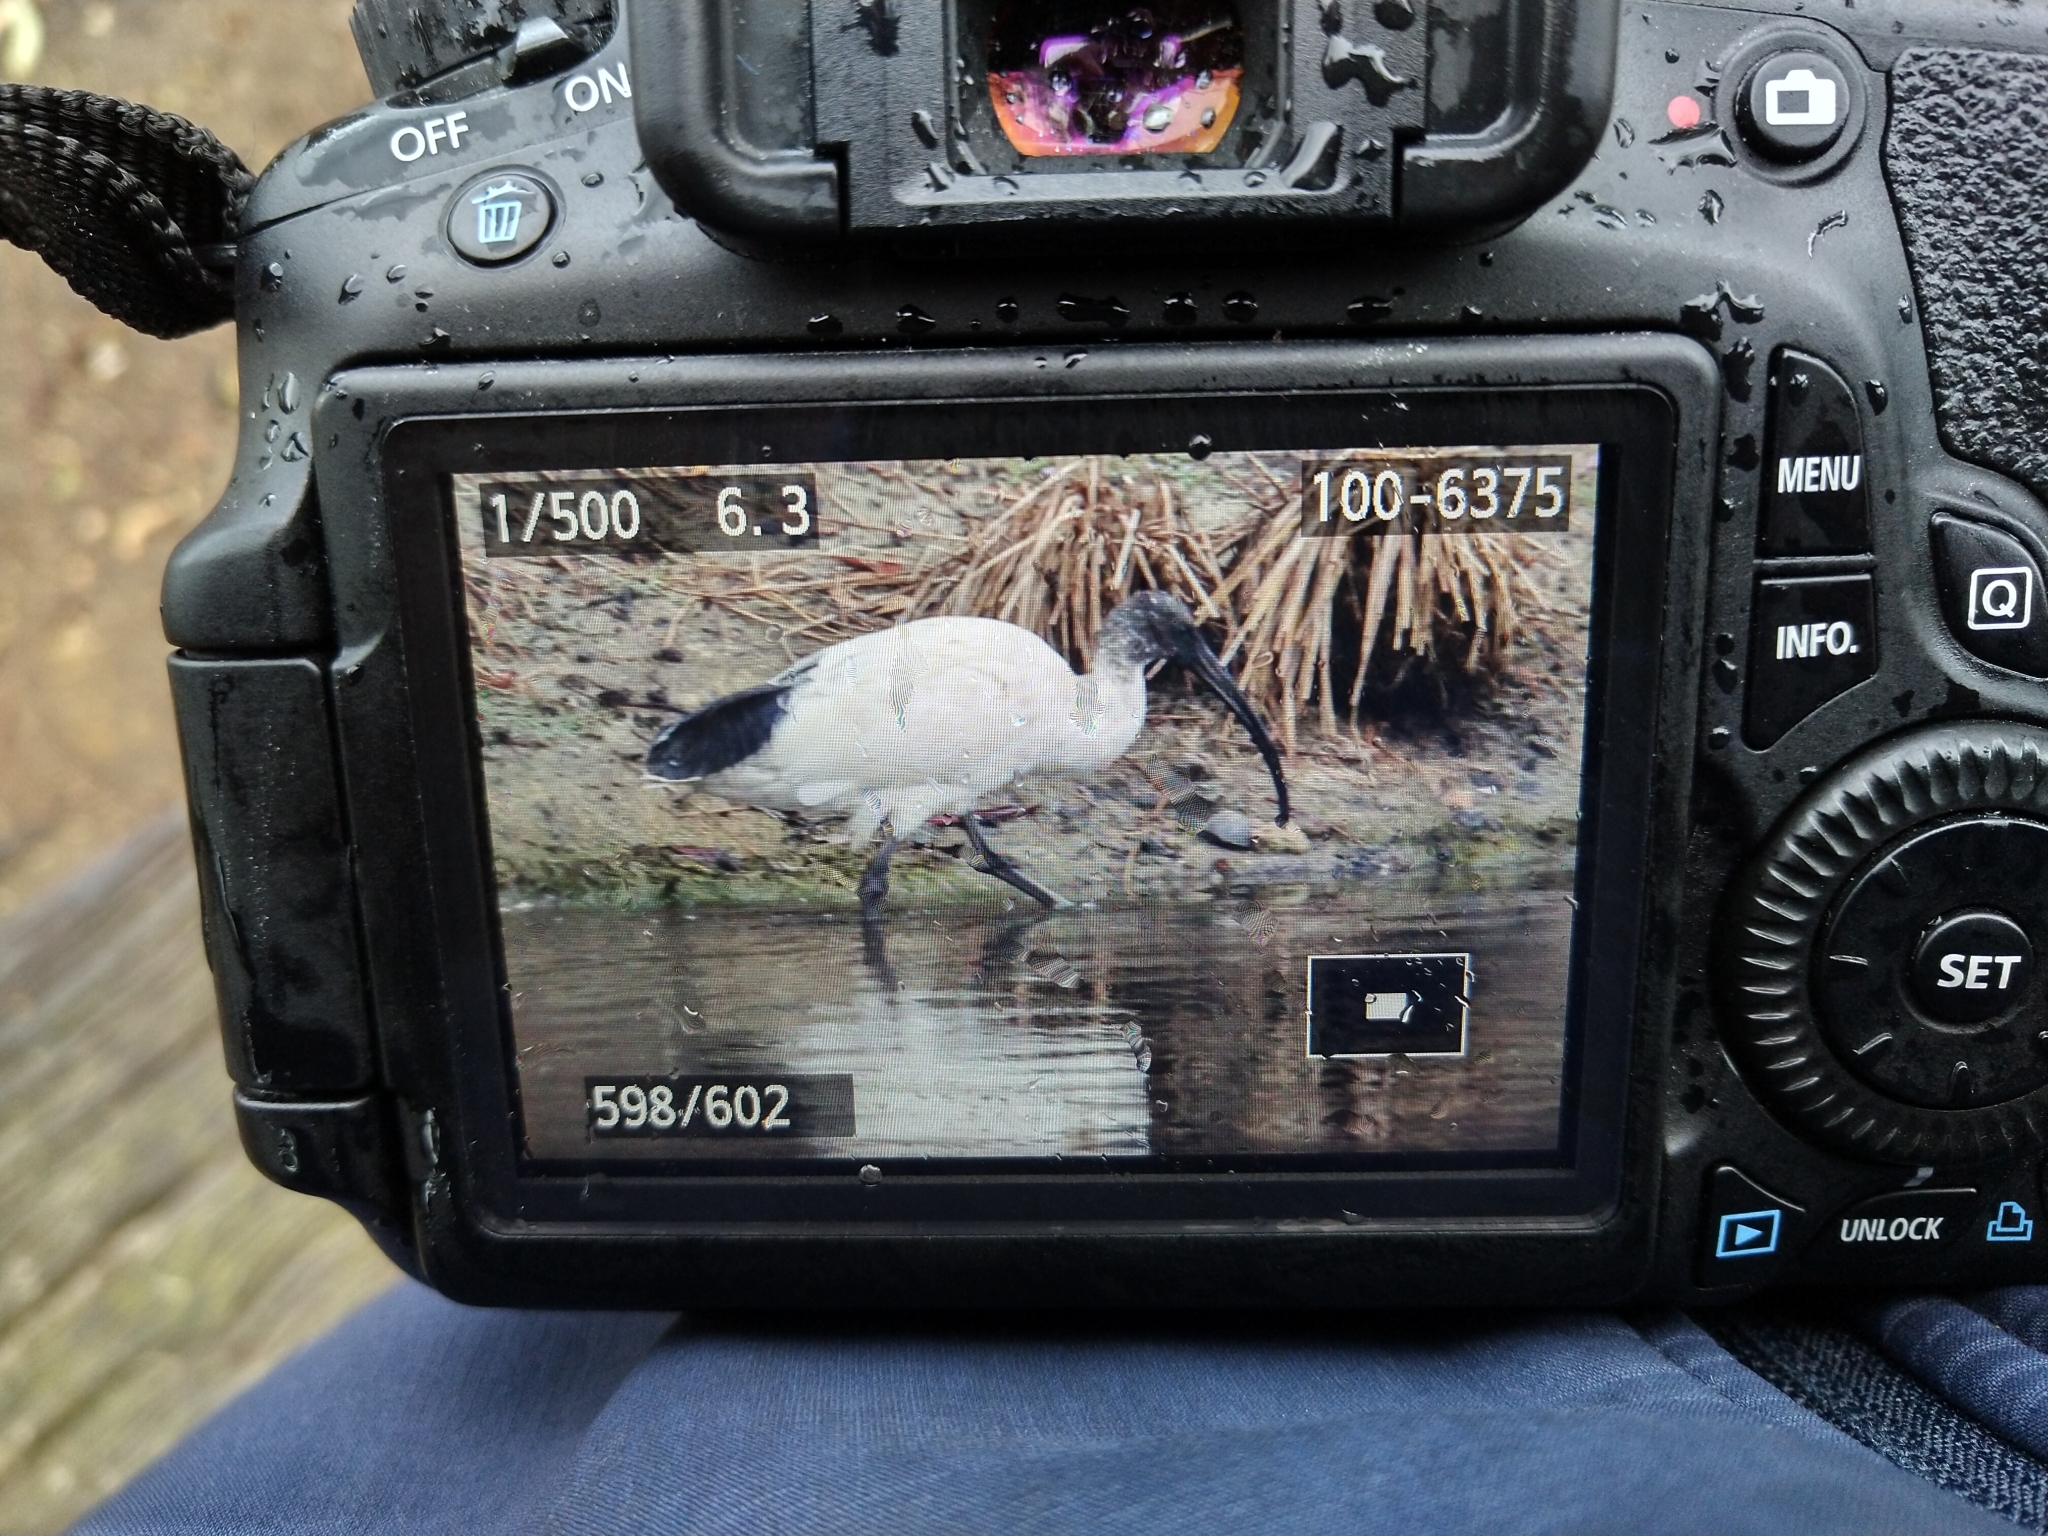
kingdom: Animalia
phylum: Chordata
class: Aves
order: Pelecaniformes
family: Threskiornithidae
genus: Threskiornis
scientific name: Threskiornis molucca
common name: Australian white ibis
